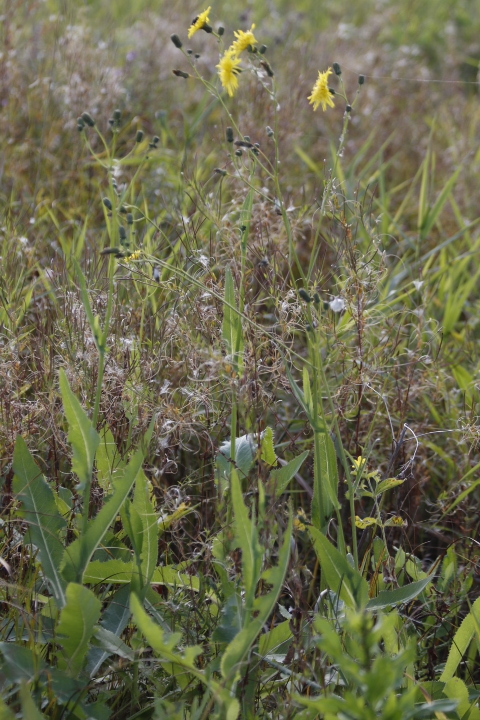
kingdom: Plantae
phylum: Tracheophyta
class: Magnoliopsida
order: Asterales
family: Asteraceae
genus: Sonchus
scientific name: Sonchus arvensis
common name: Perennial sow-thistle
